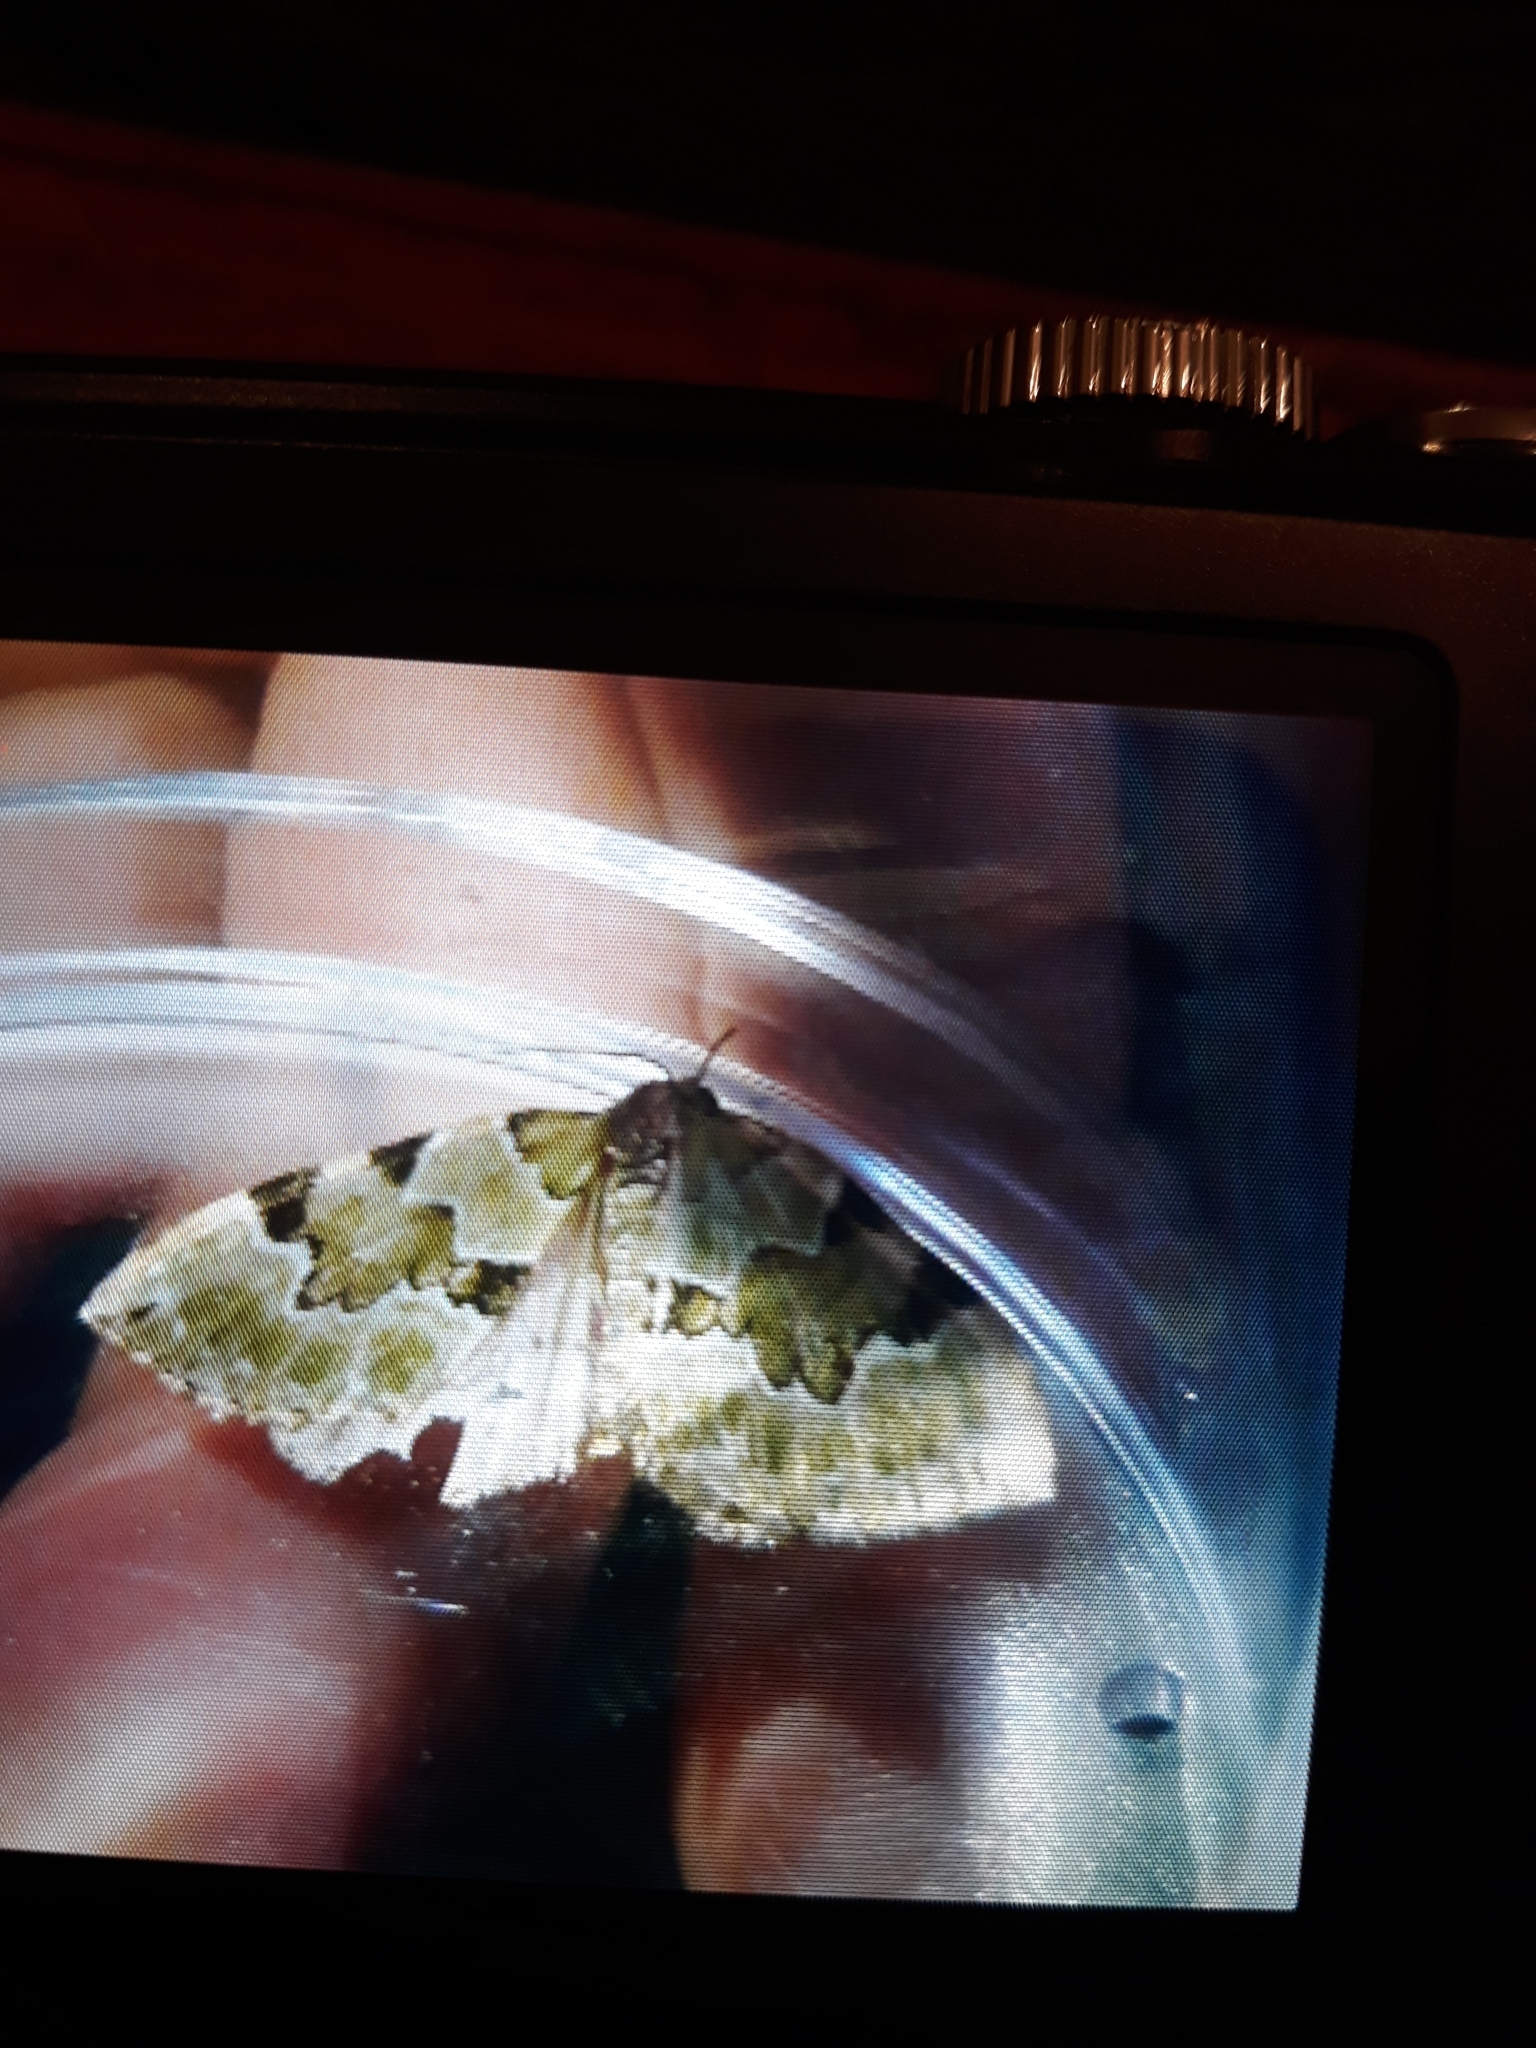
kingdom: Animalia
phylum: Arthropoda
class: Insecta
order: Lepidoptera
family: Geometridae
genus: Colostygia
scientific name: Colostygia pectinataria
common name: Green carpet
